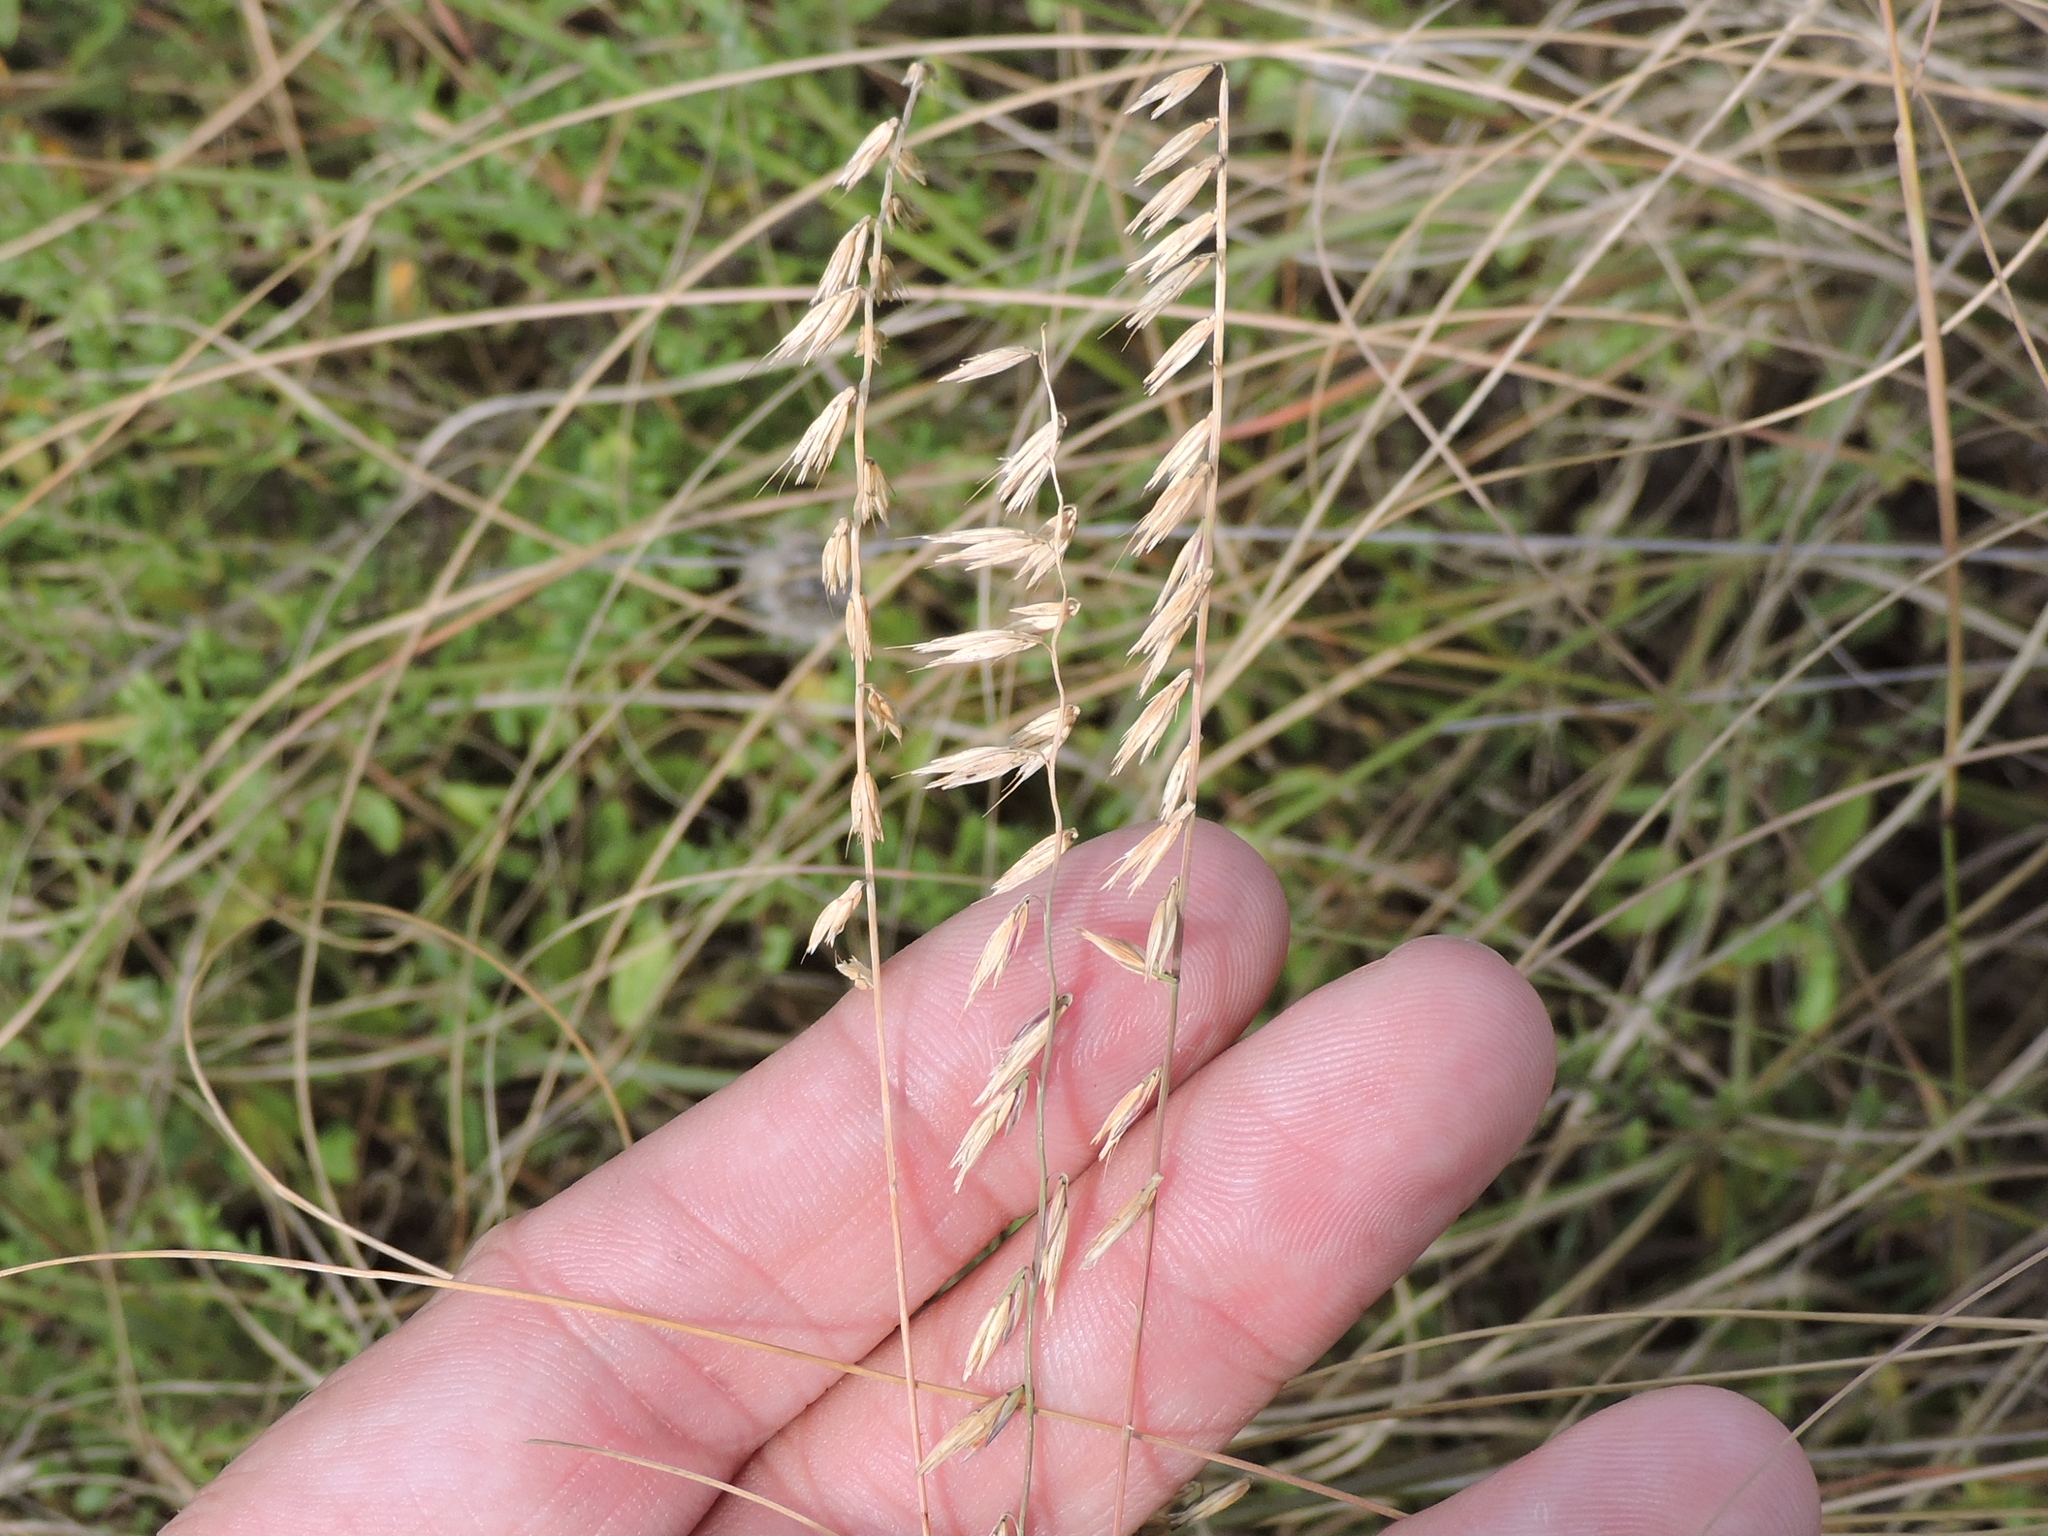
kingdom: Plantae
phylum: Tracheophyta
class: Liliopsida
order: Poales
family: Poaceae
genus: Bouteloua
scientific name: Bouteloua curtipendula
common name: Side-oats grama
